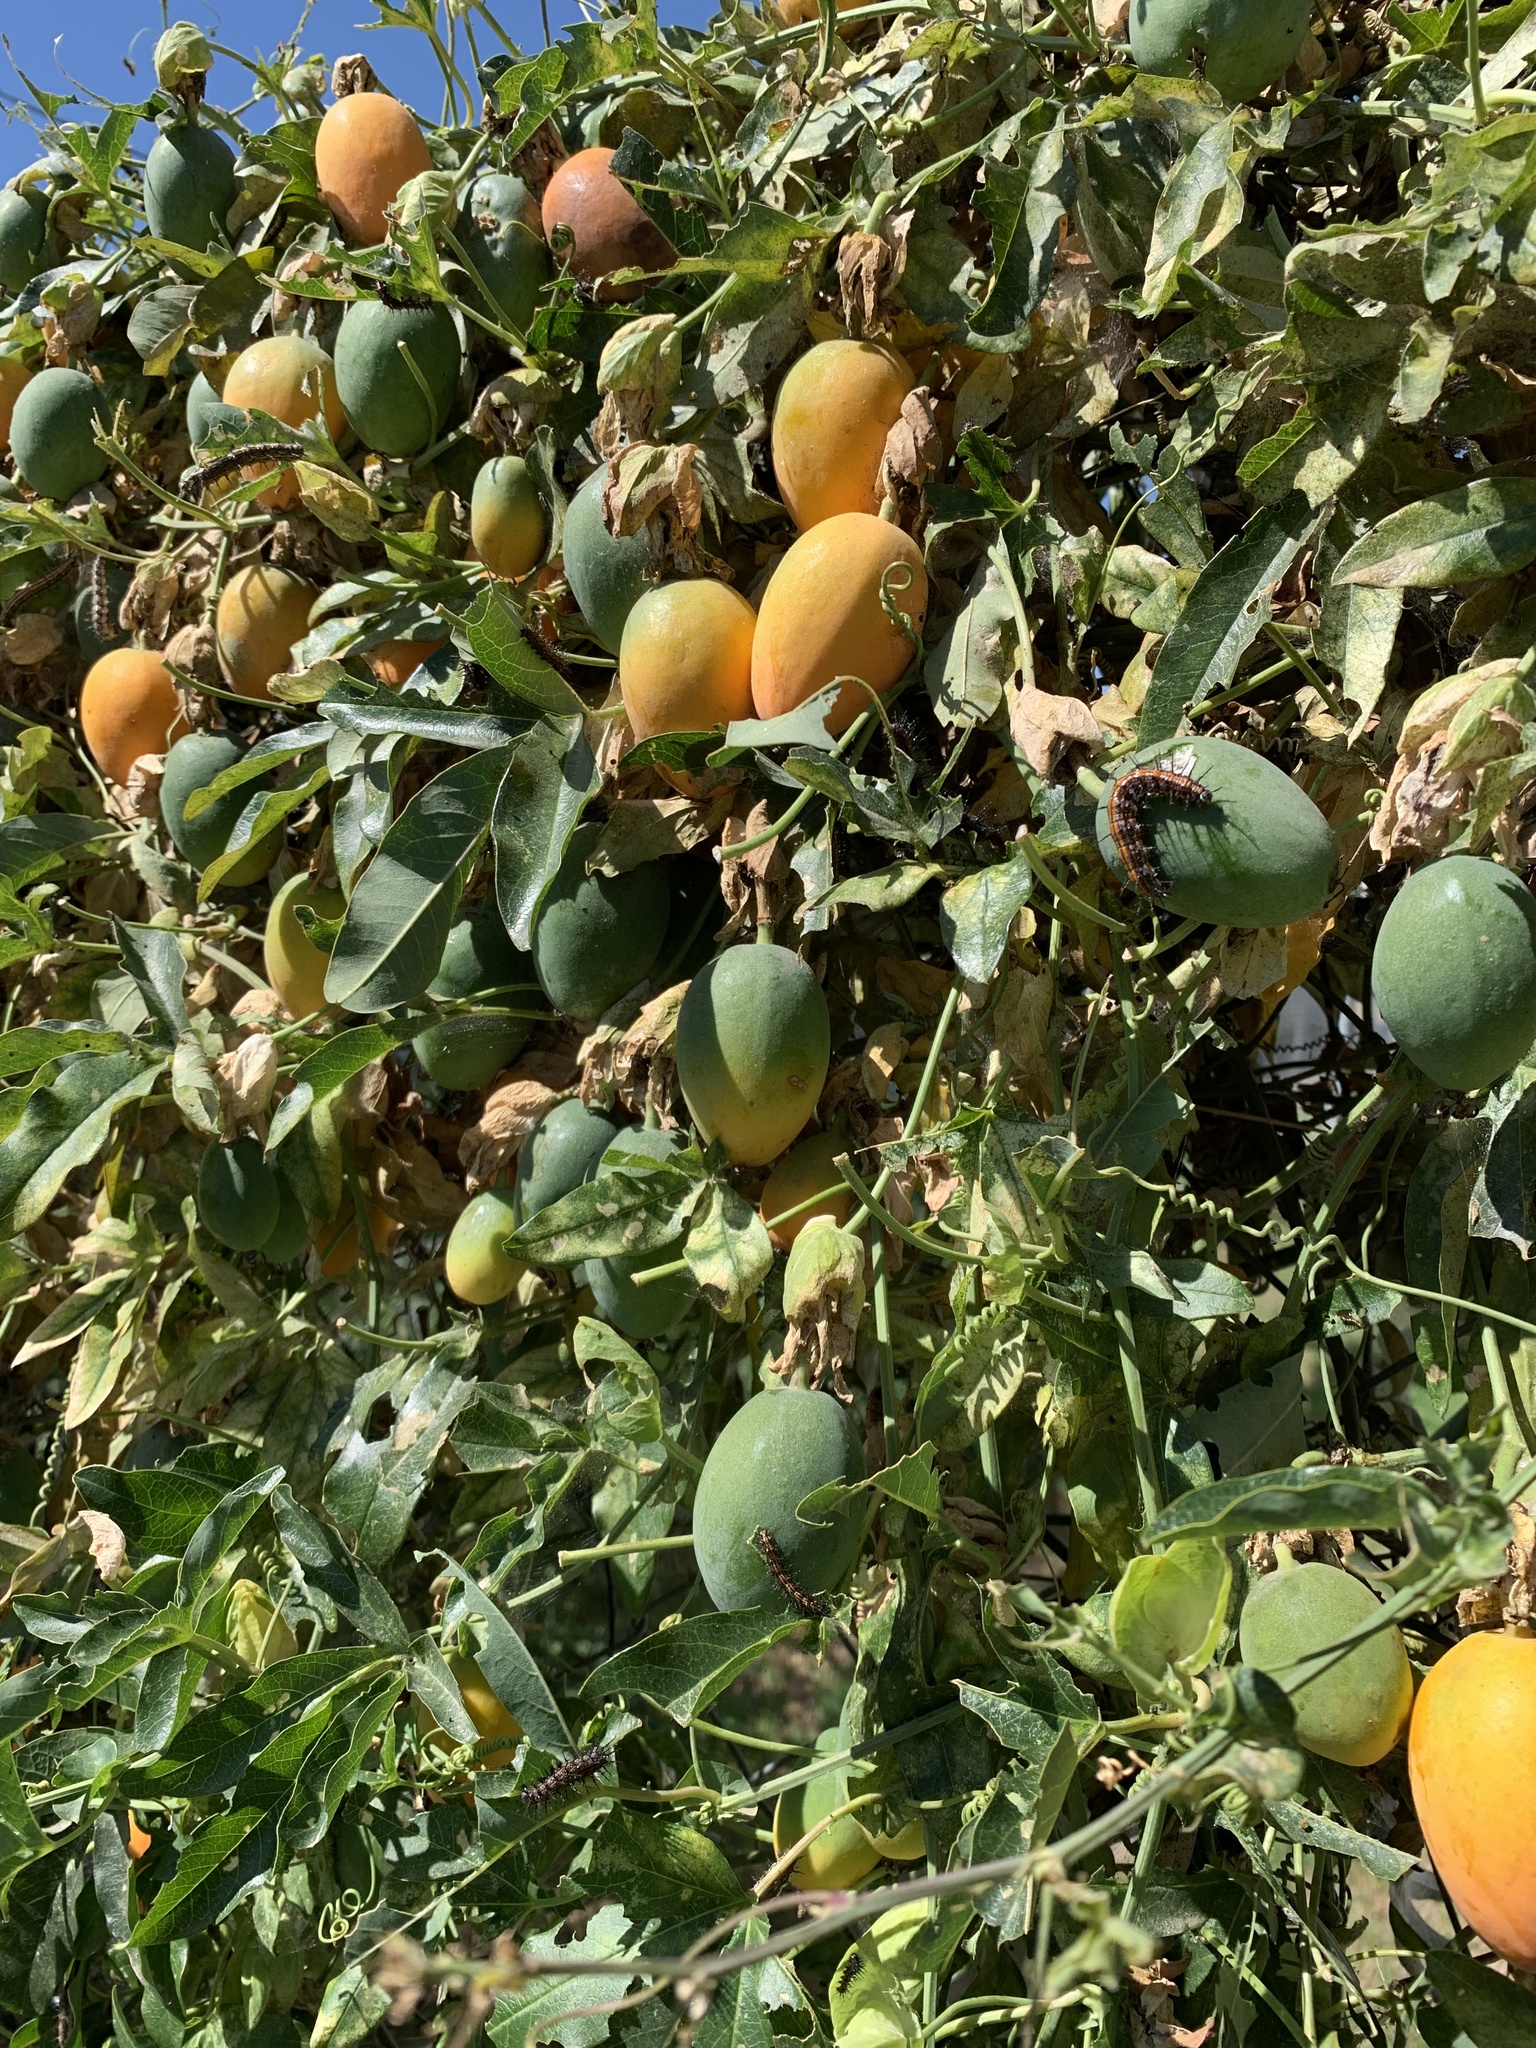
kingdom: Plantae
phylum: Tracheophyta
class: Magnoliopsida
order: Malpighiales
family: Passifloraceae
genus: Passiflora
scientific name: Passiflora caerulea
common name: Blue passionflower
